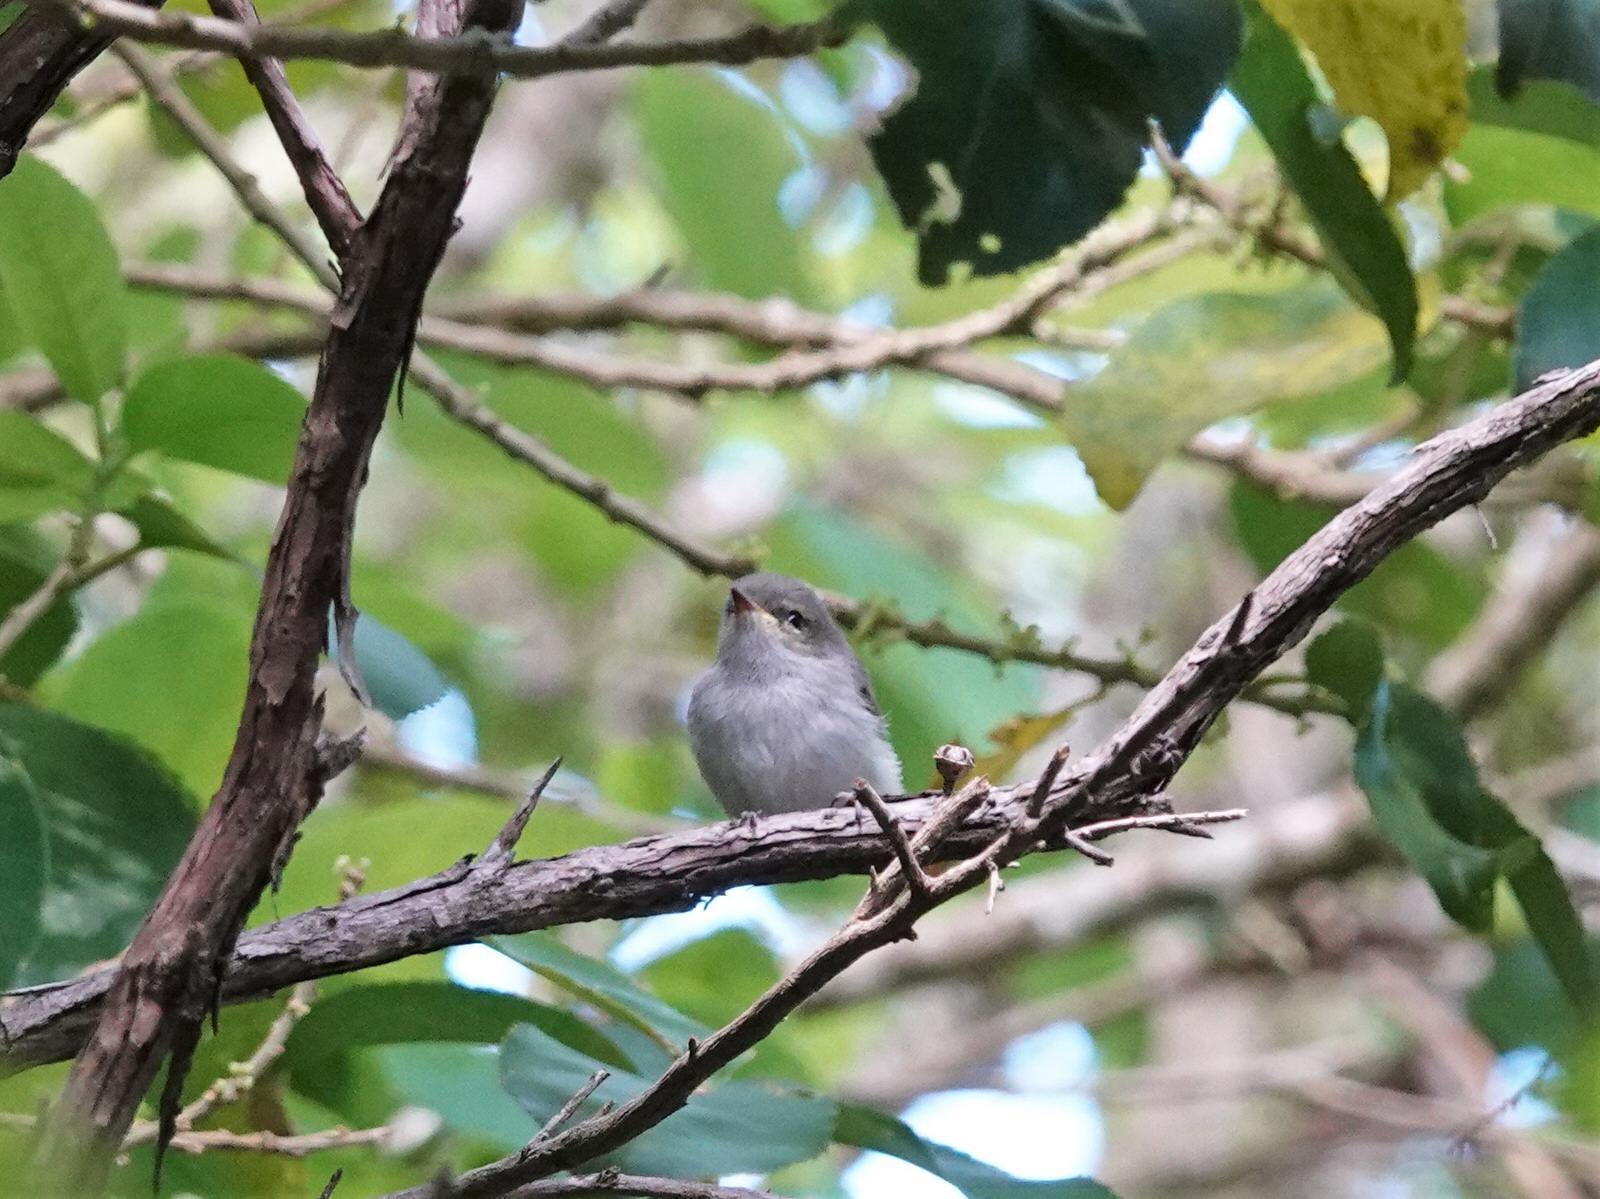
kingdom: Animalia
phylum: Chordata
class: Aves
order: Passeriformes
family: Acanthizidae
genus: Gerygone
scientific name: Gerygone igata
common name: Grey gerygone
